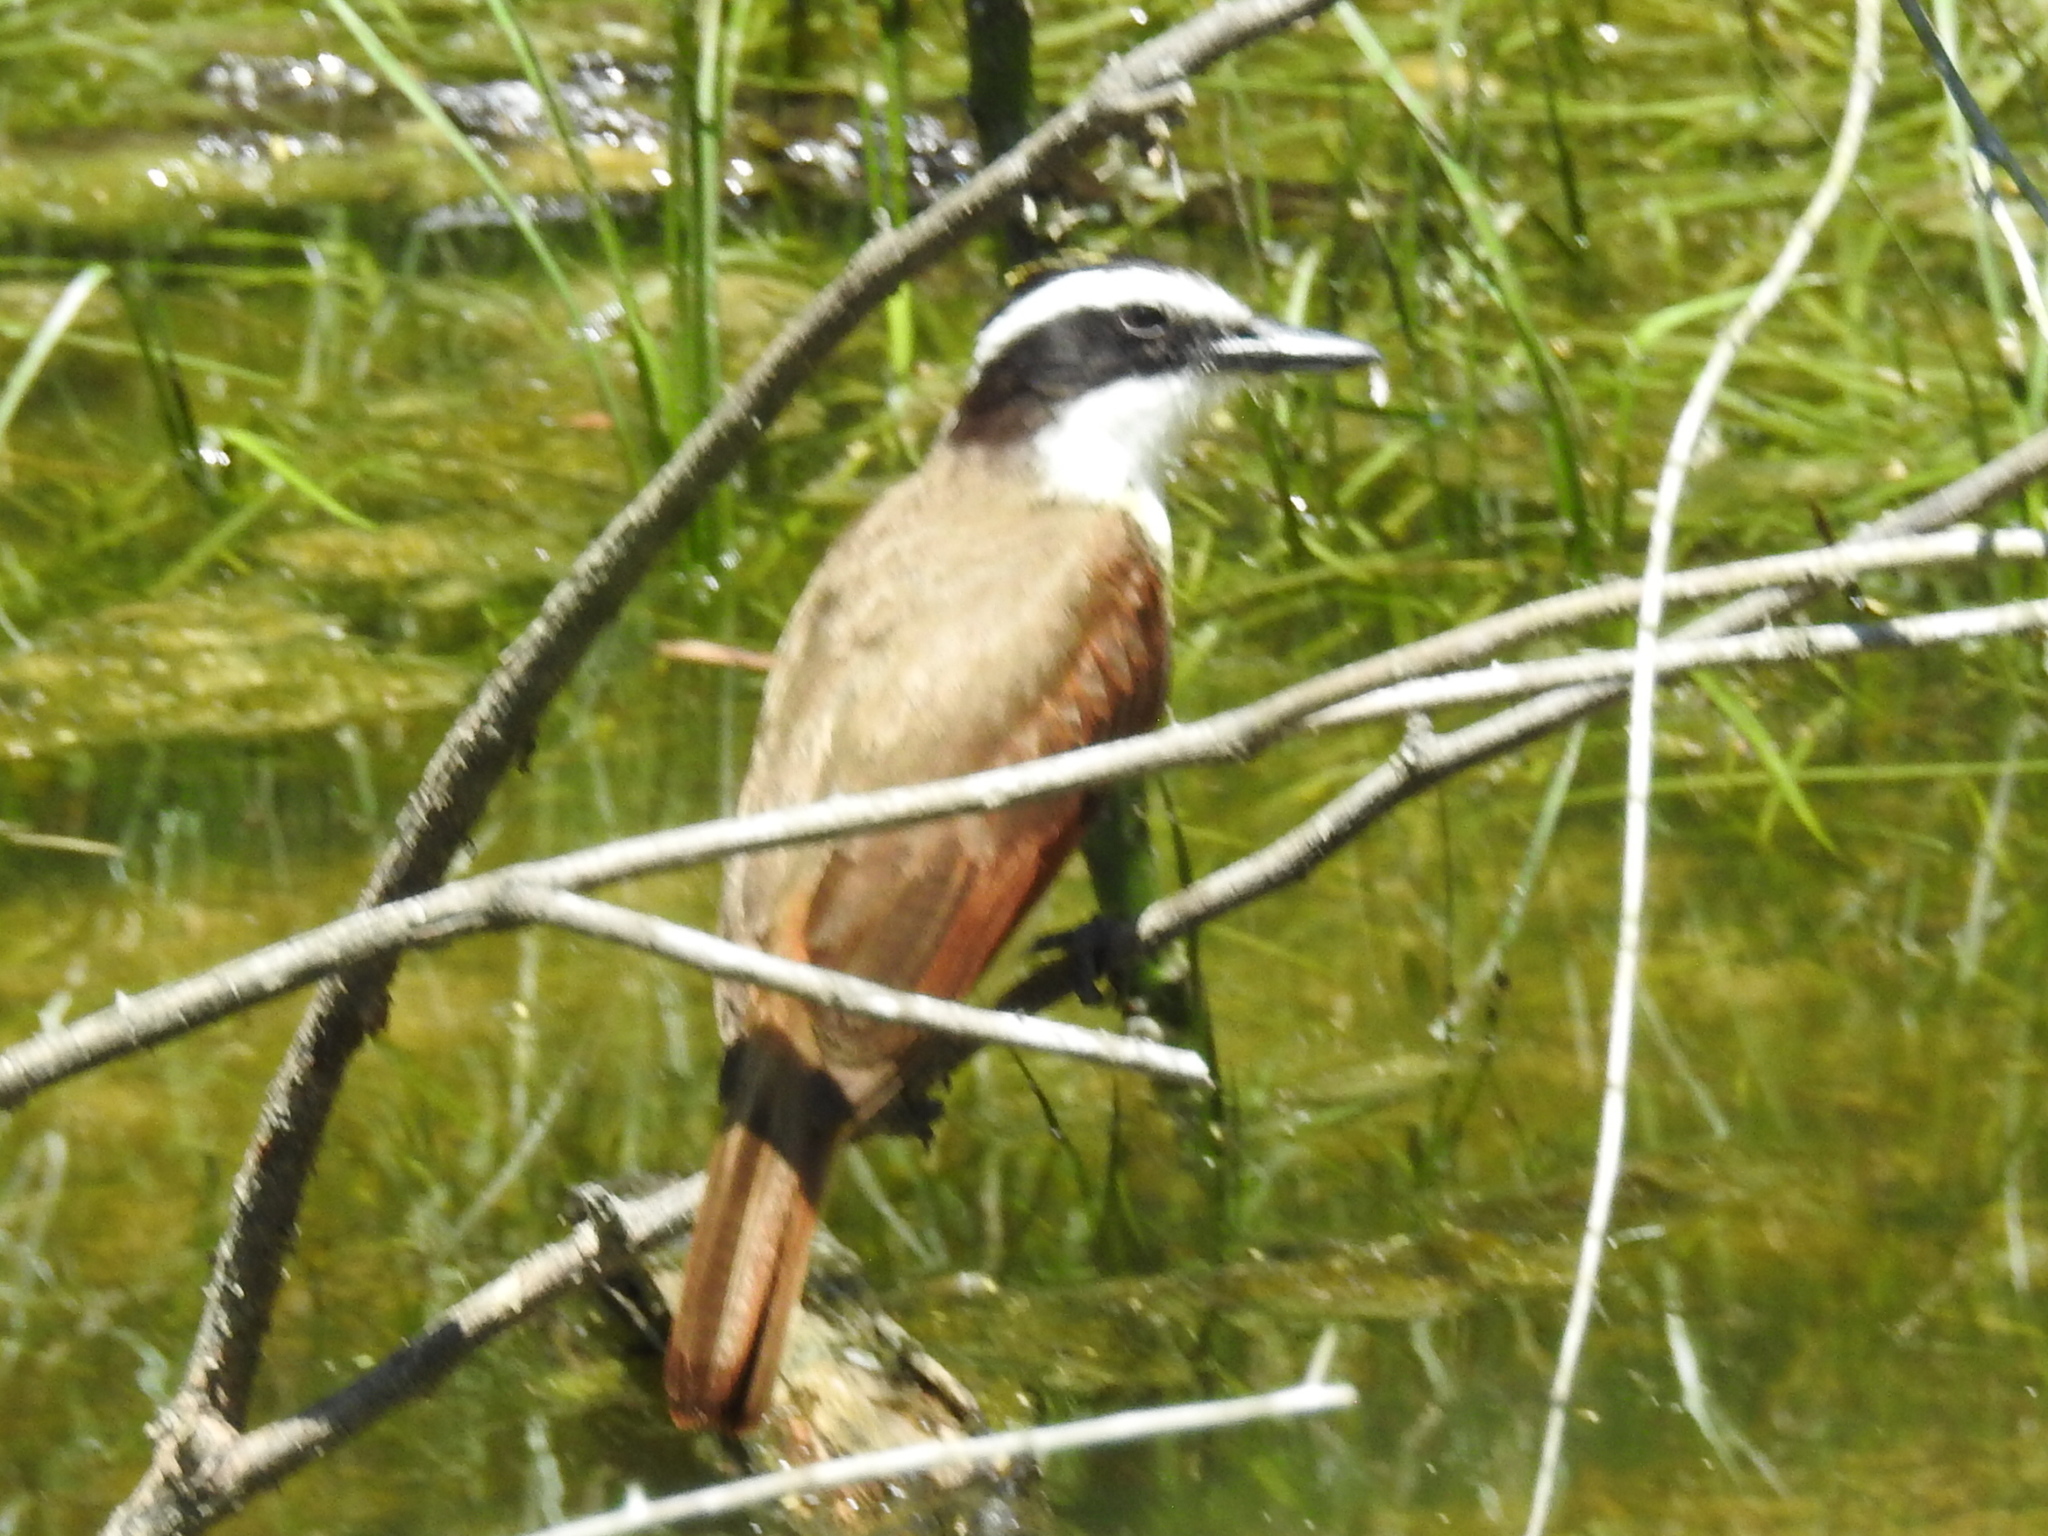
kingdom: Animalia
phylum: Chordata
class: Aves
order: Passeriformes
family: Tyrannidae
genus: Pitangus
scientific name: Pitangus sulphuratus
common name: Great kiskadee
